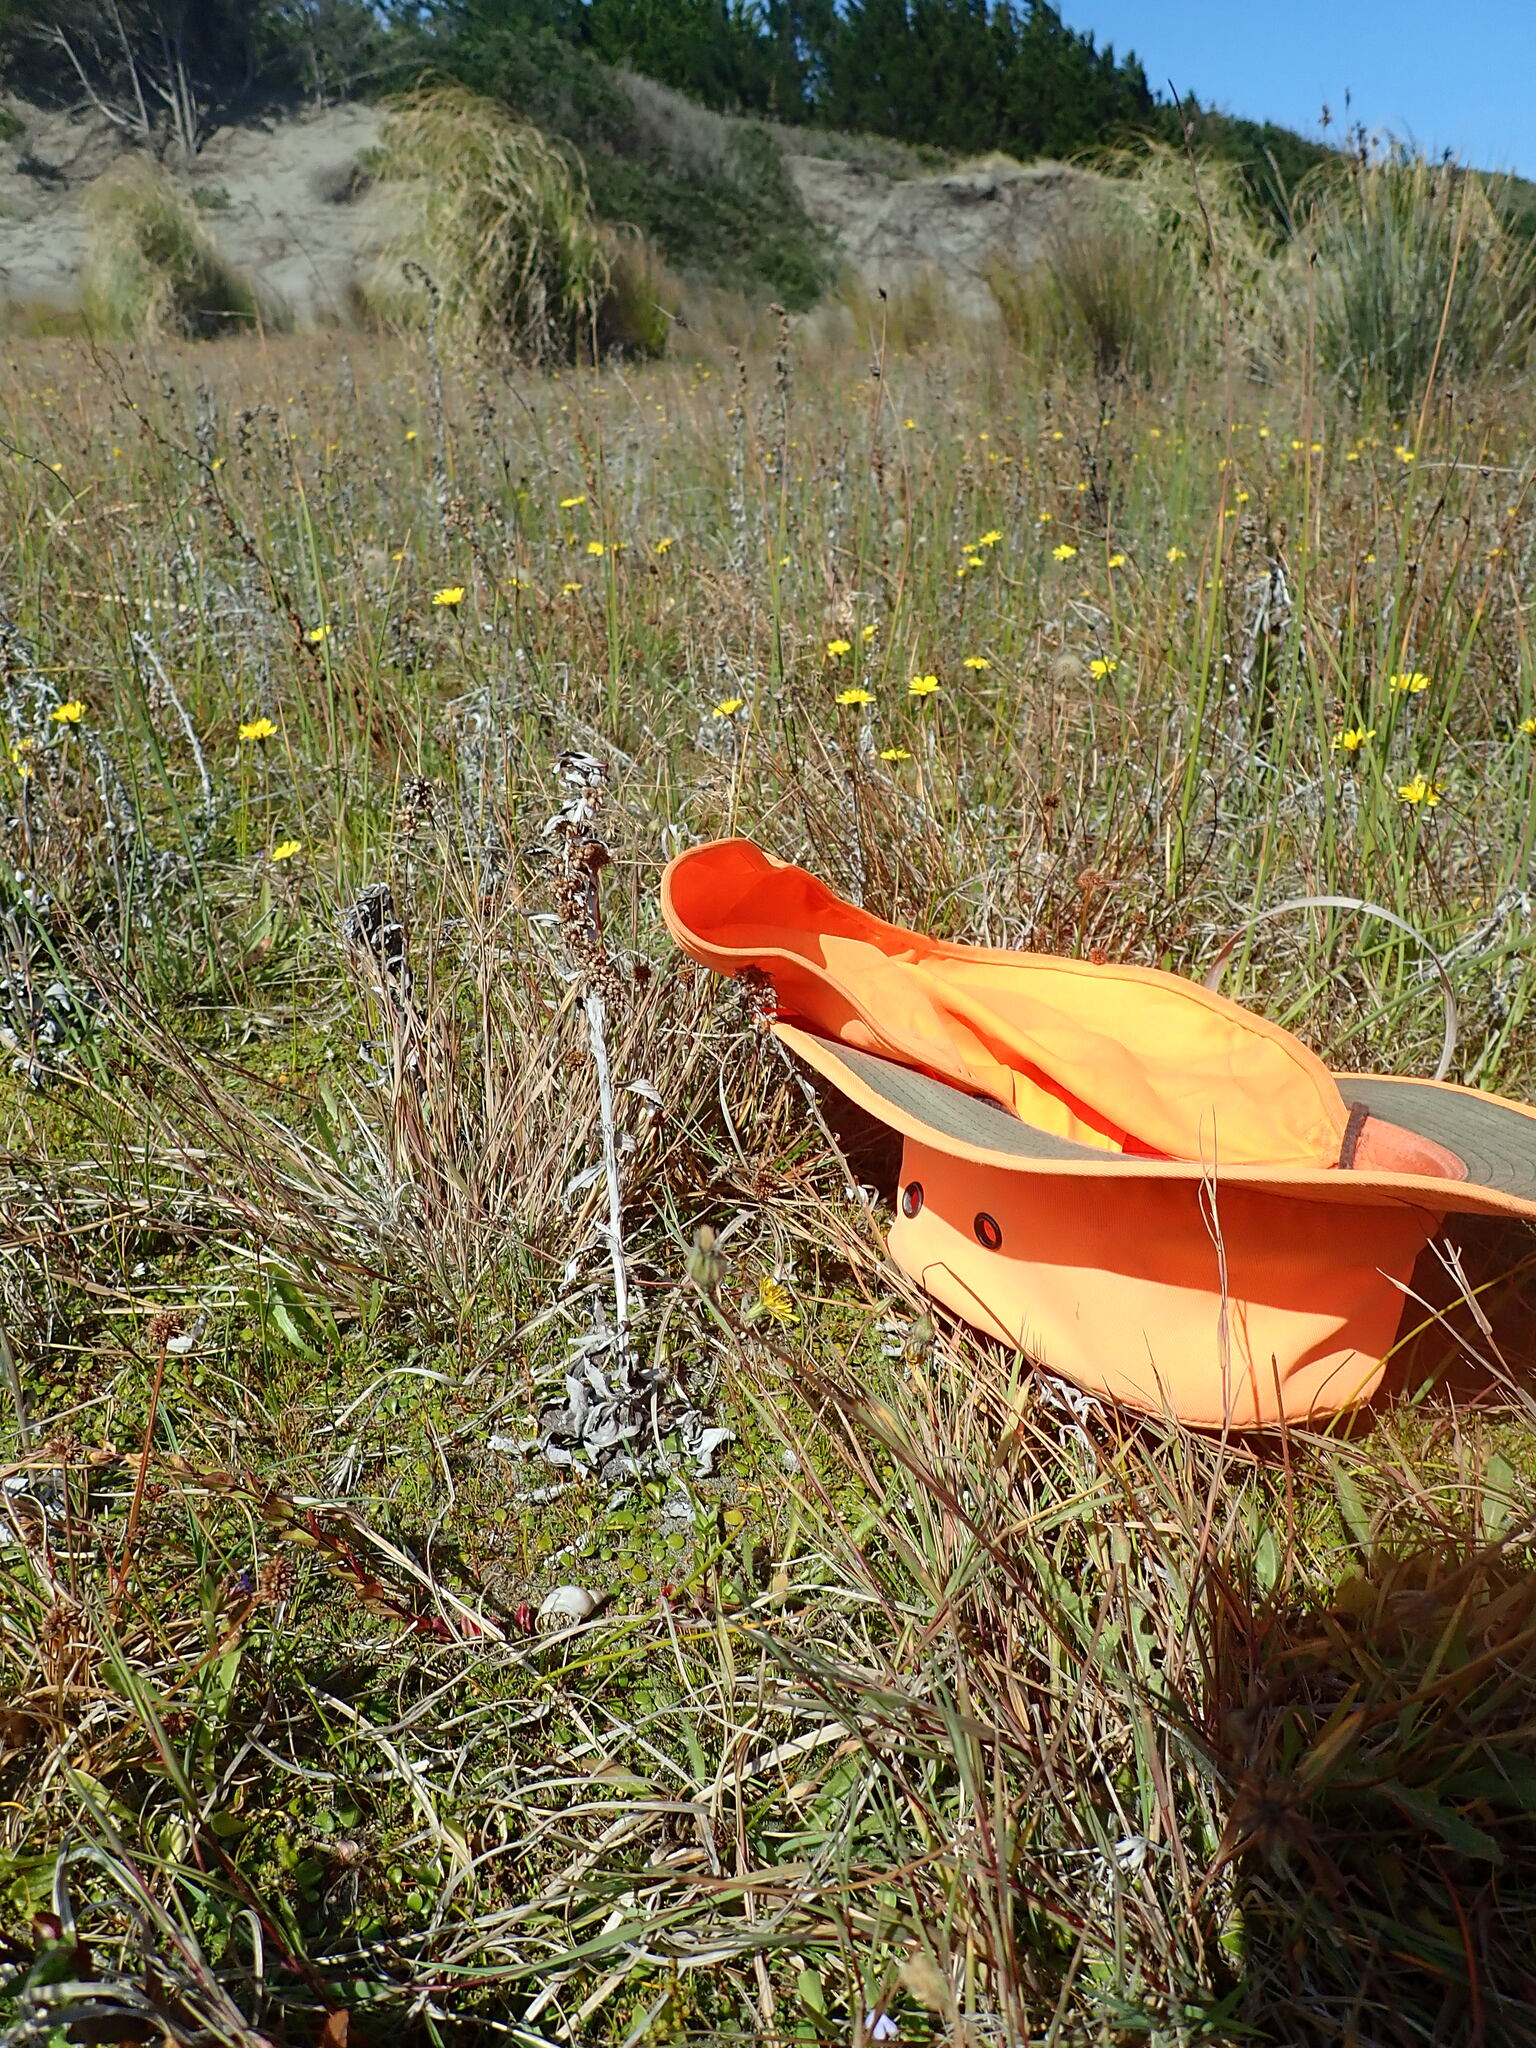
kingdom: Animalia
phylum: Mollusca
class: Gastropoda
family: Lymnaeidae
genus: Lymnaea
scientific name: Lymnaea stagnalis
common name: Great pond snail
